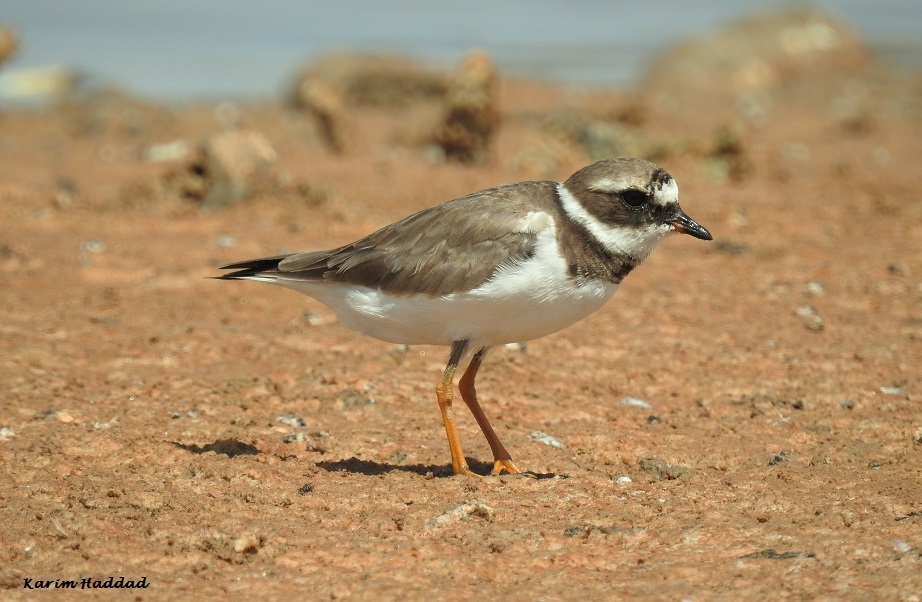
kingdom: Animalia
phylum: Chordata
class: Aves
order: Charadriiformes
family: Charadriidae
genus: Charadrius
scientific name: Charadrius hiaticula
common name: Common ringed plover
